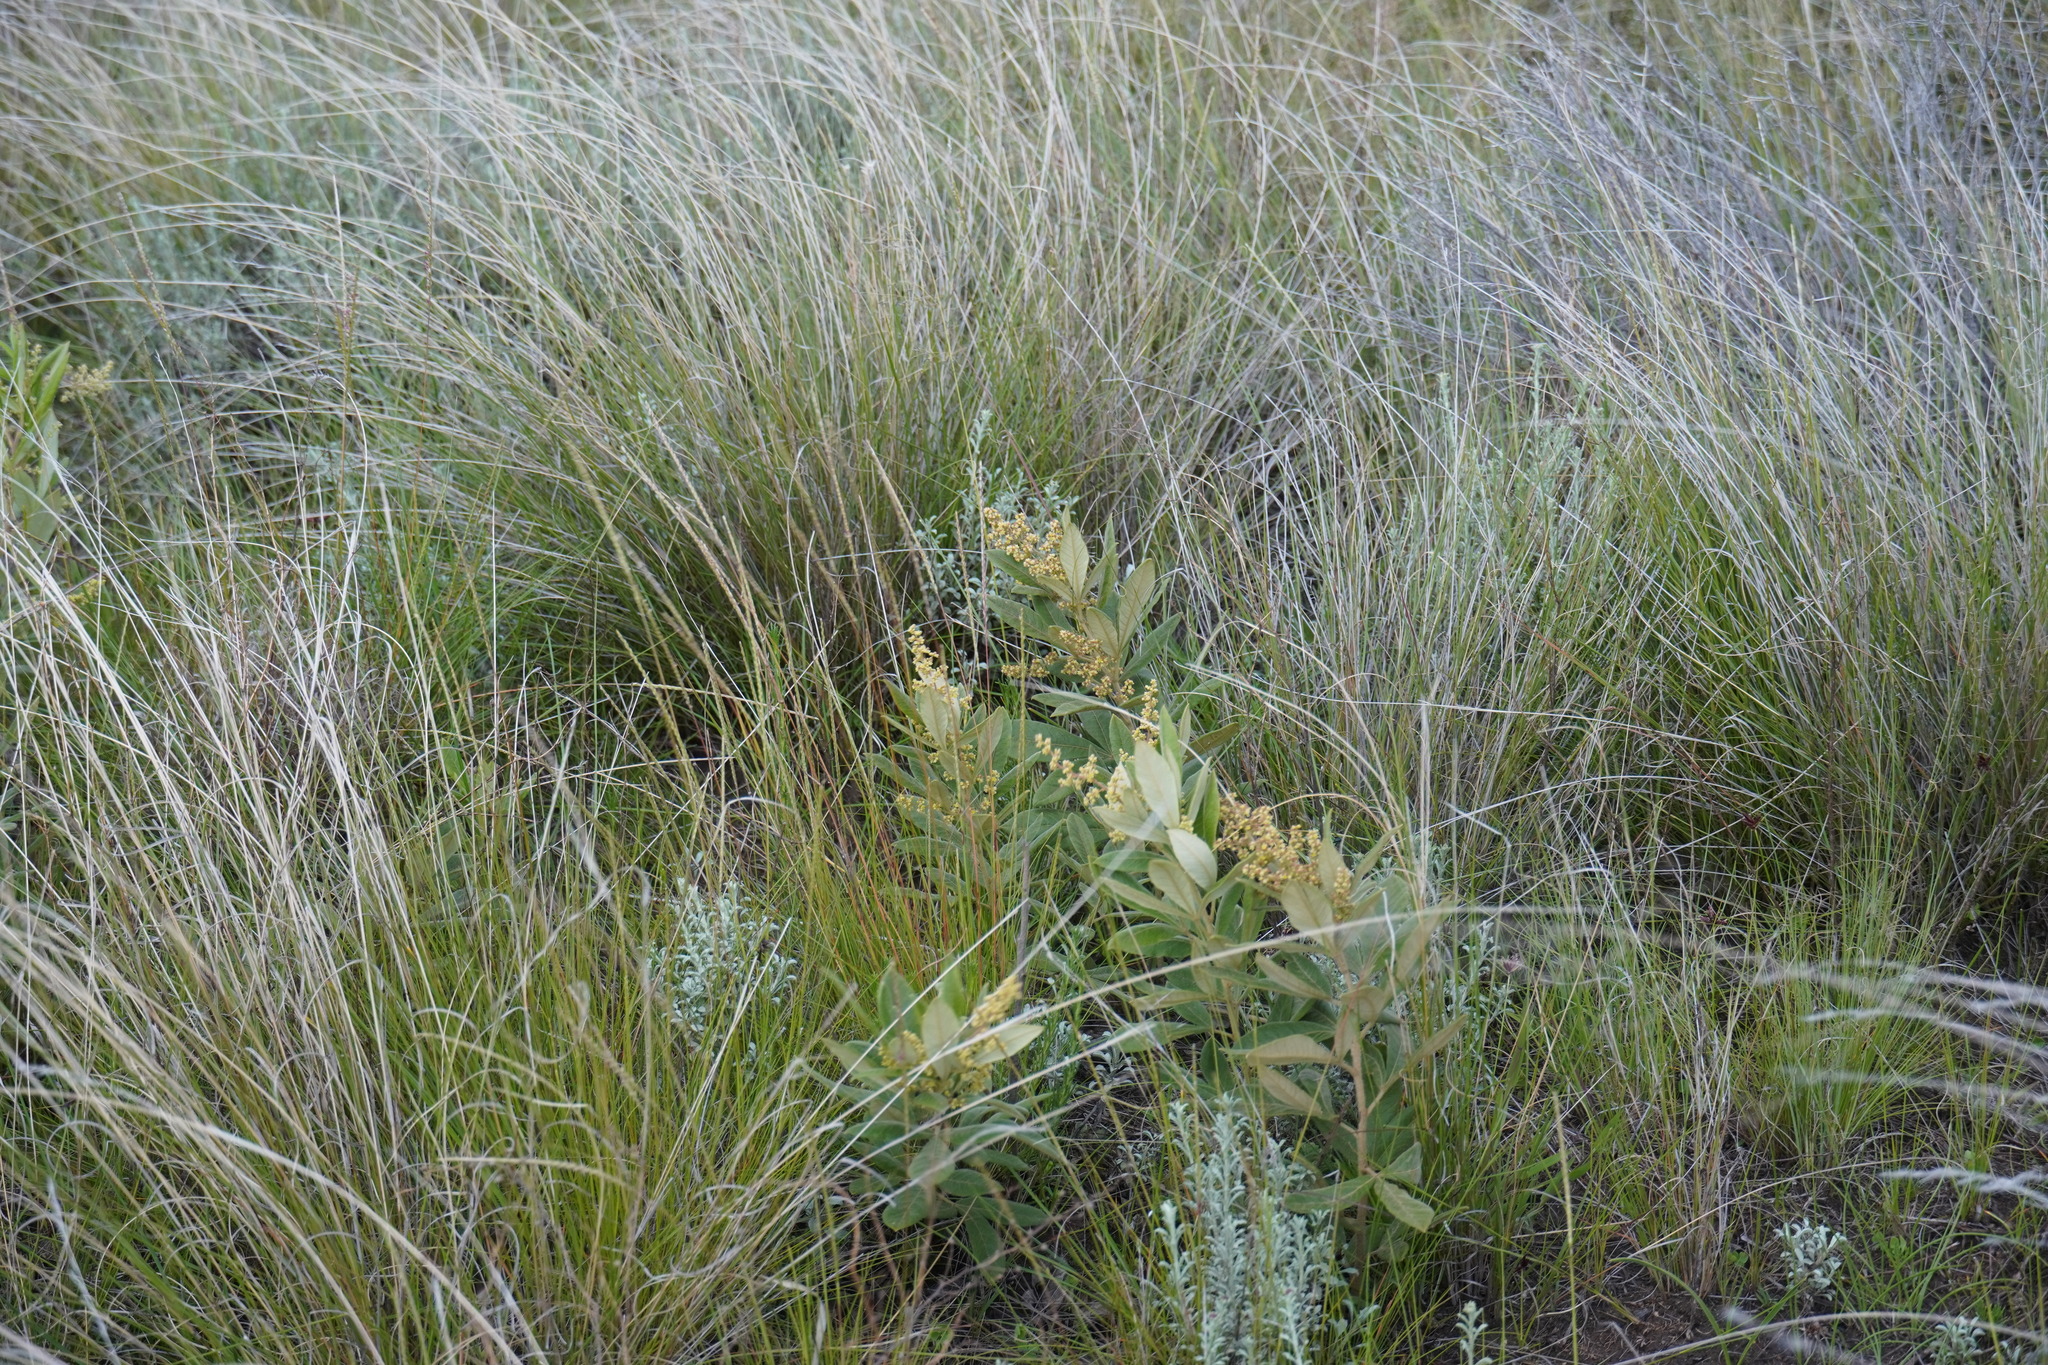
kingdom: Plantae
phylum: Tracheophyta
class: Magnoliopsida
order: Sapindales
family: Anacardiaceae
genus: Searsia
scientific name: Searsia discolor
